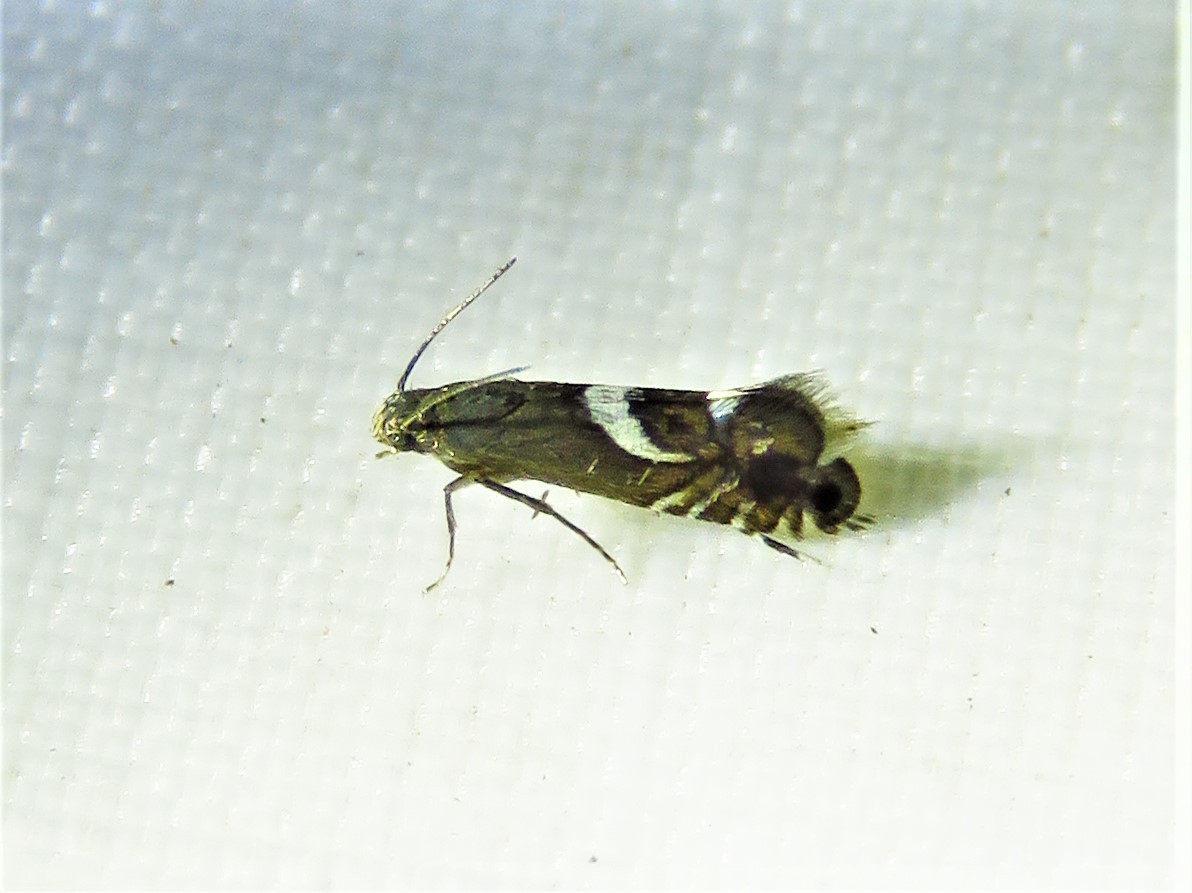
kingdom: Animalia
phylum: Arthropoda
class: Insecta
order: Lepidoptera
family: Glyphipterigidae
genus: Glyphipterix
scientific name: Glyphipterix Diploschizia impigritella
